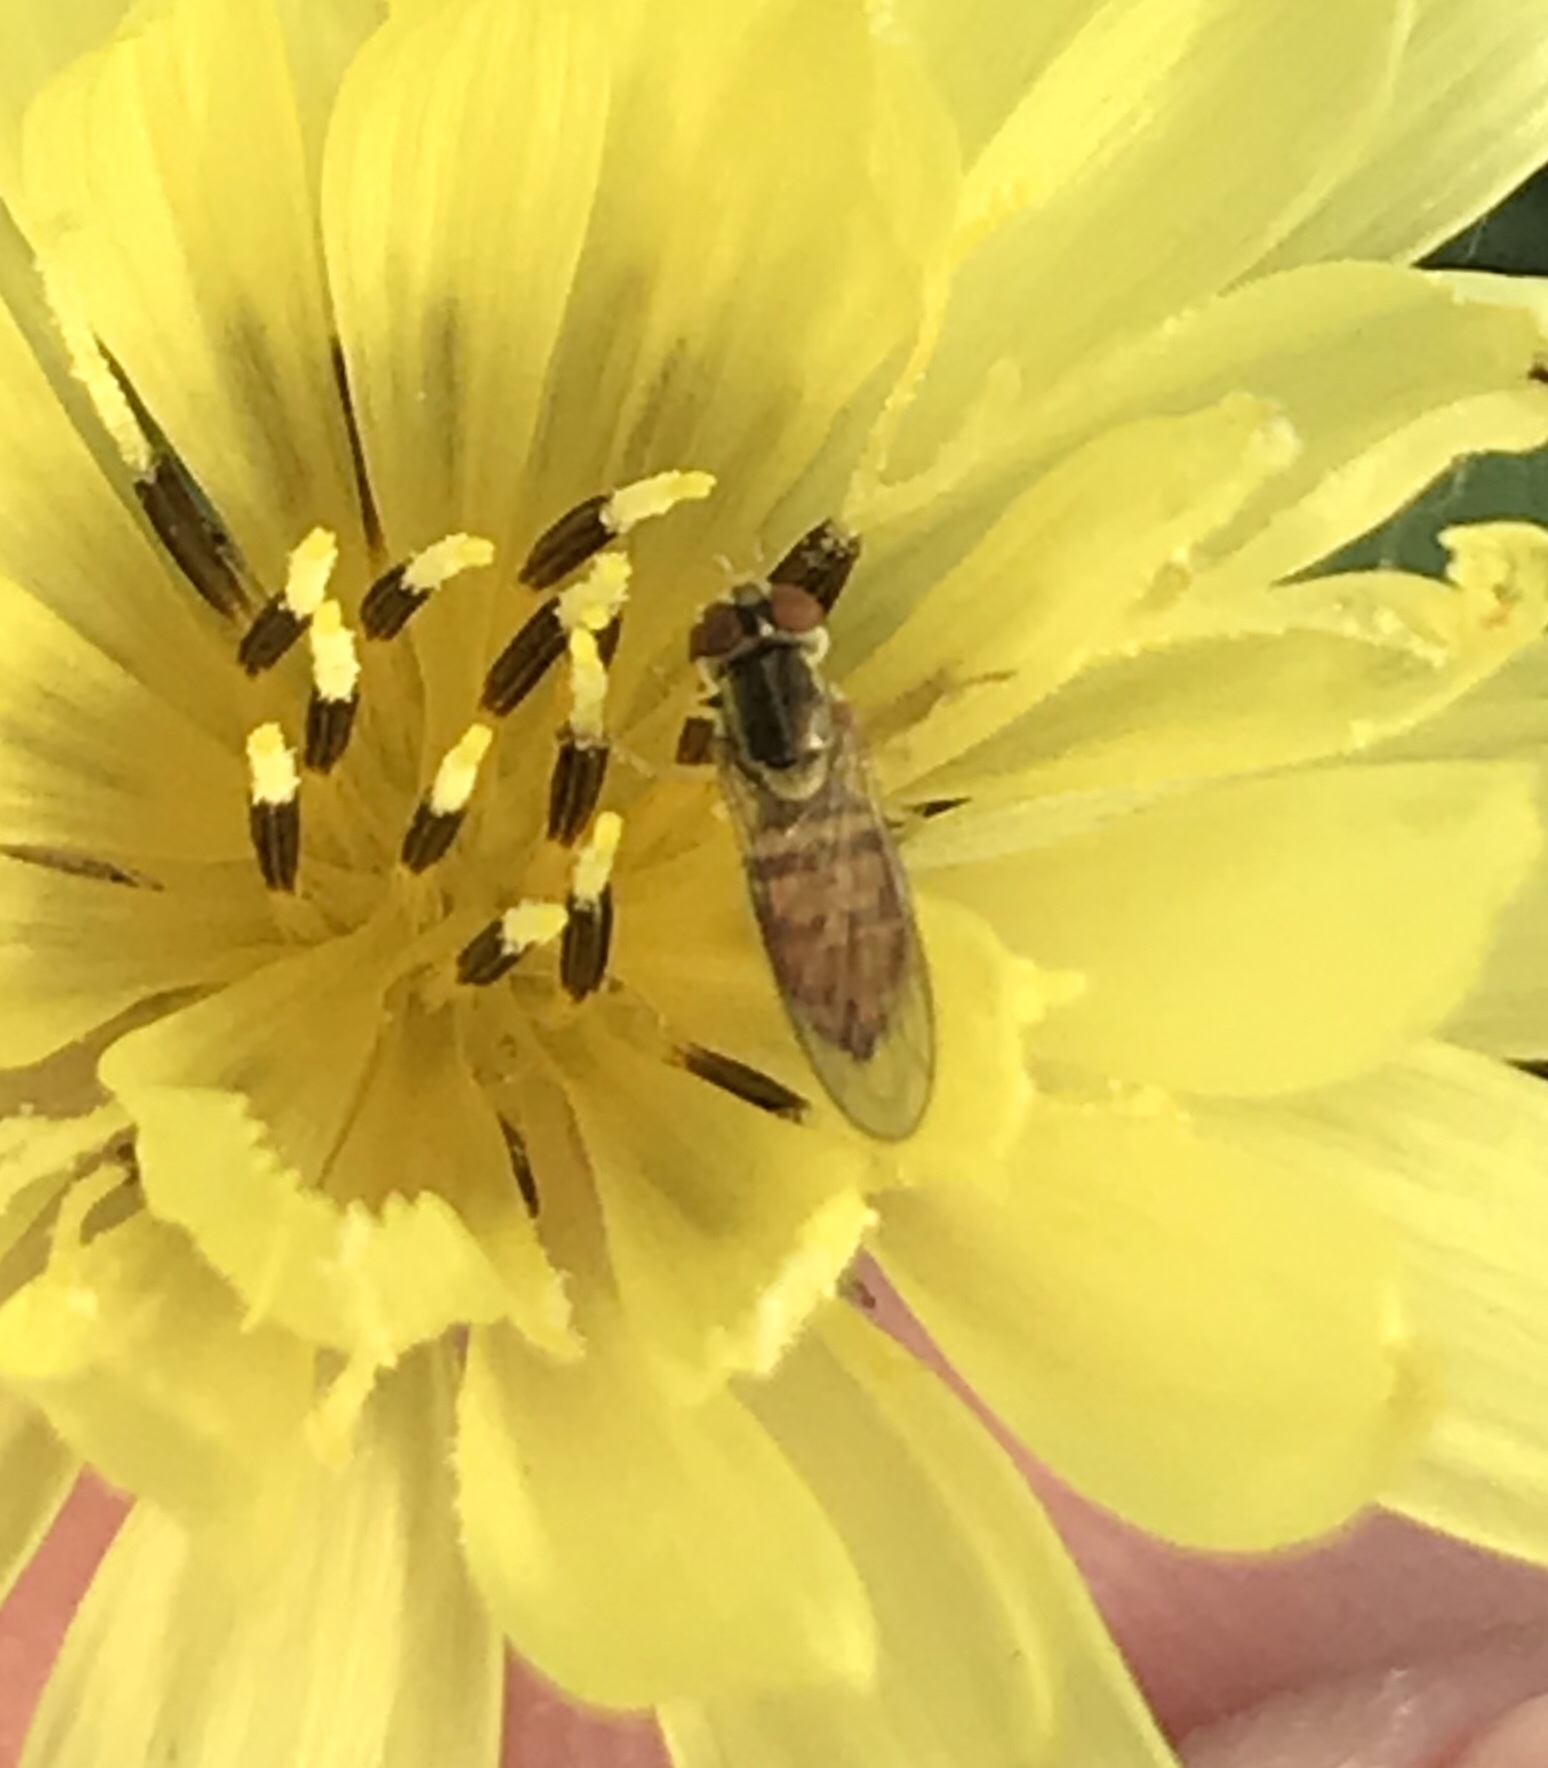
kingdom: Animalia
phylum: Arthropoda
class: Insecta
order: Diptera
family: Syrphidae
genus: Toxomerus
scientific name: Toxomerus marginatus
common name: Syrphid fly
